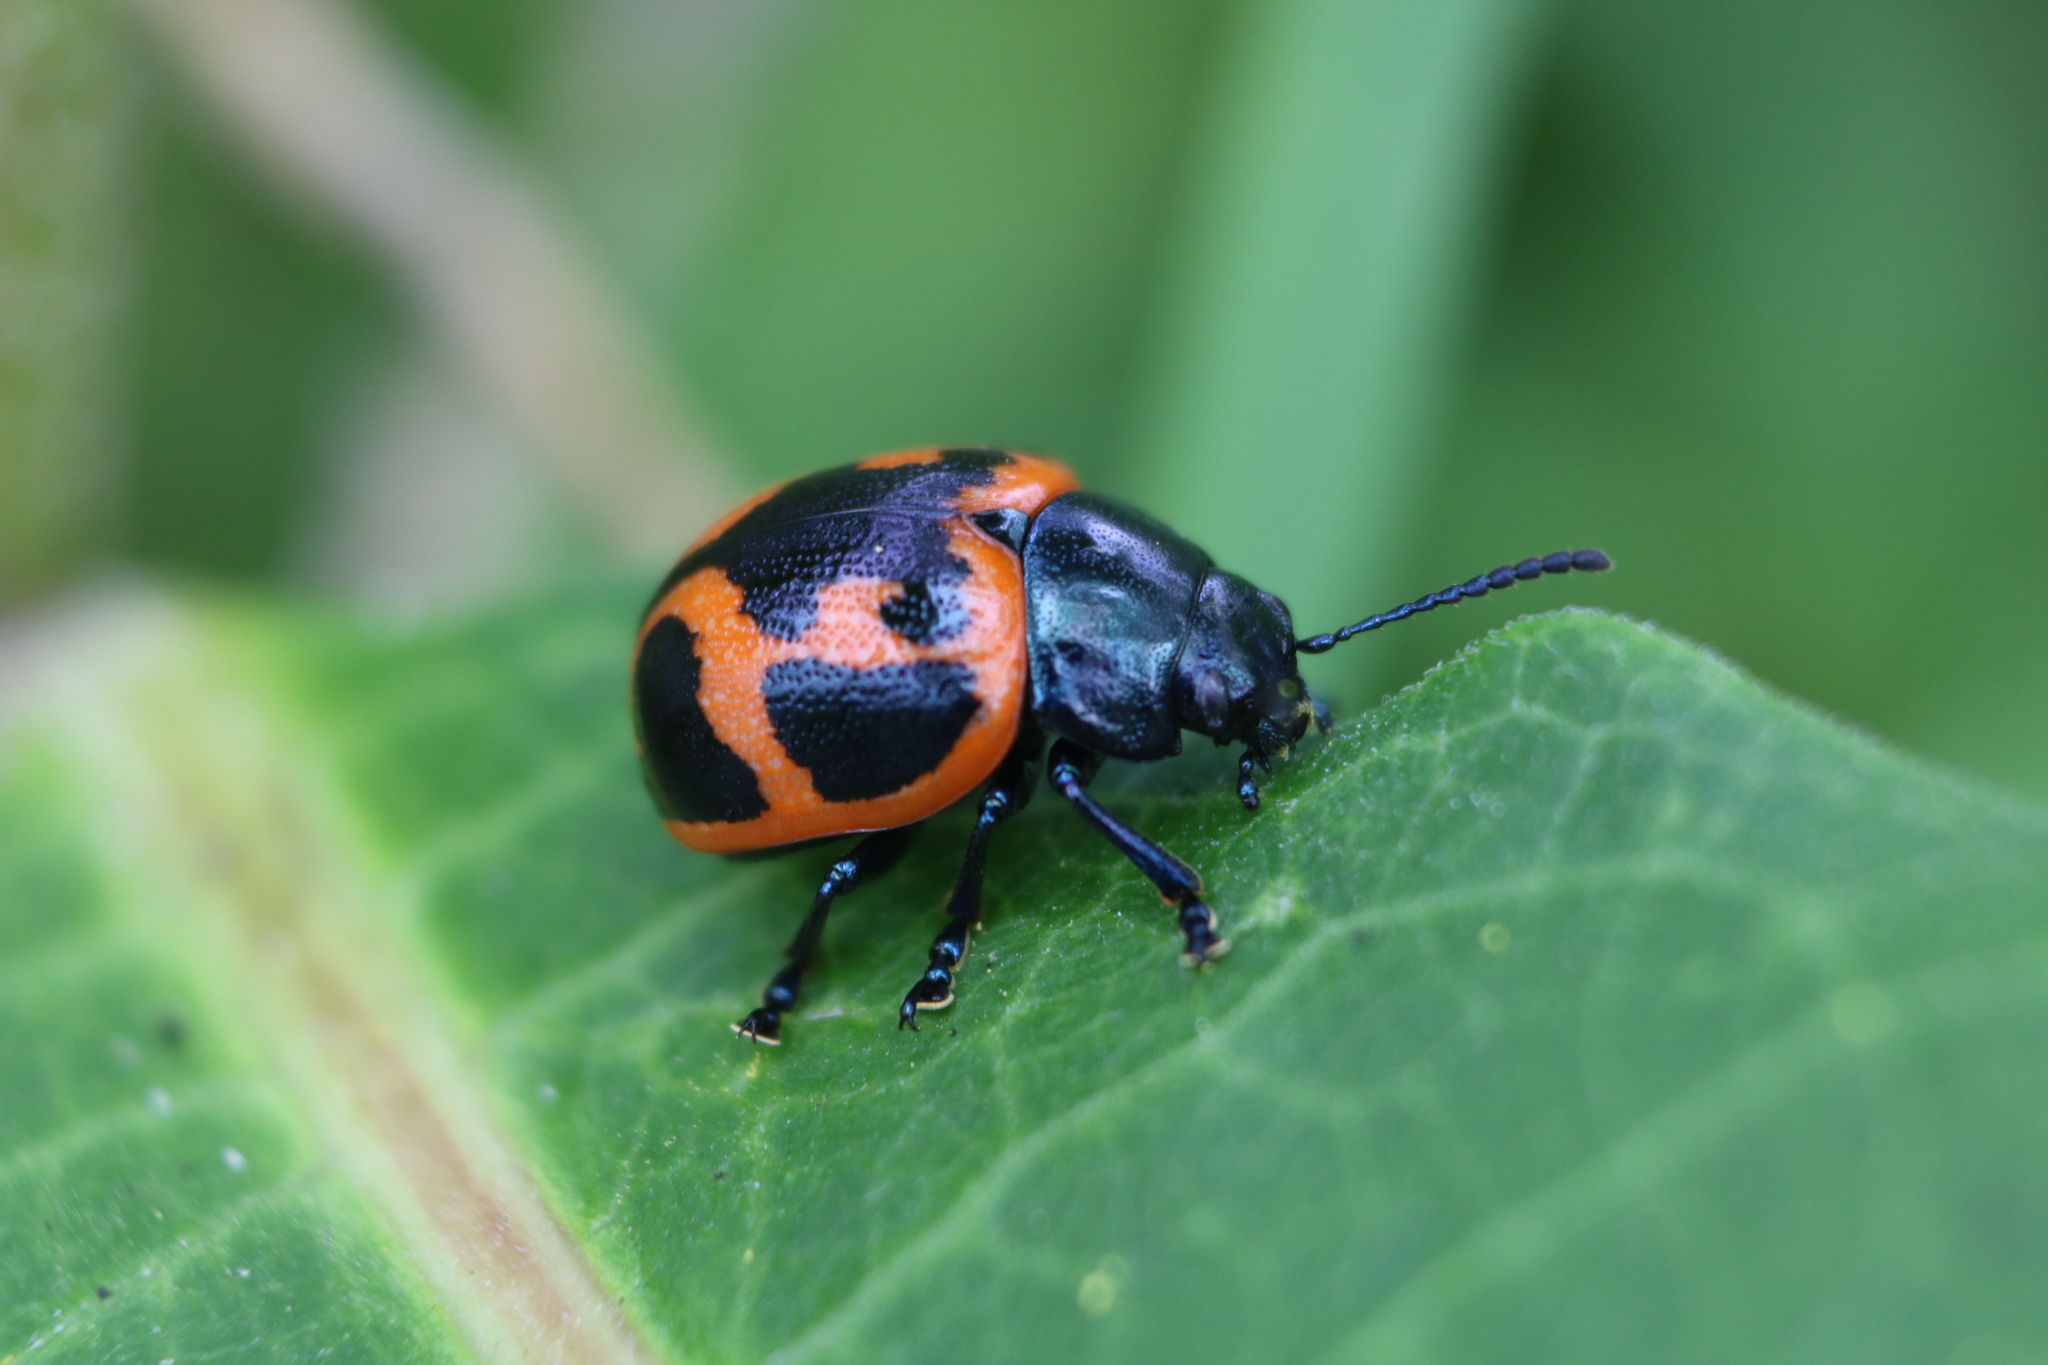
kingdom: Animalia
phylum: Arthropoda
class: Insecta
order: Coleoptera
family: Chrysomelidae
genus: Labidomera
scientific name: Labidomera clivicollis
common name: Swamp milkweed leaf beetle
